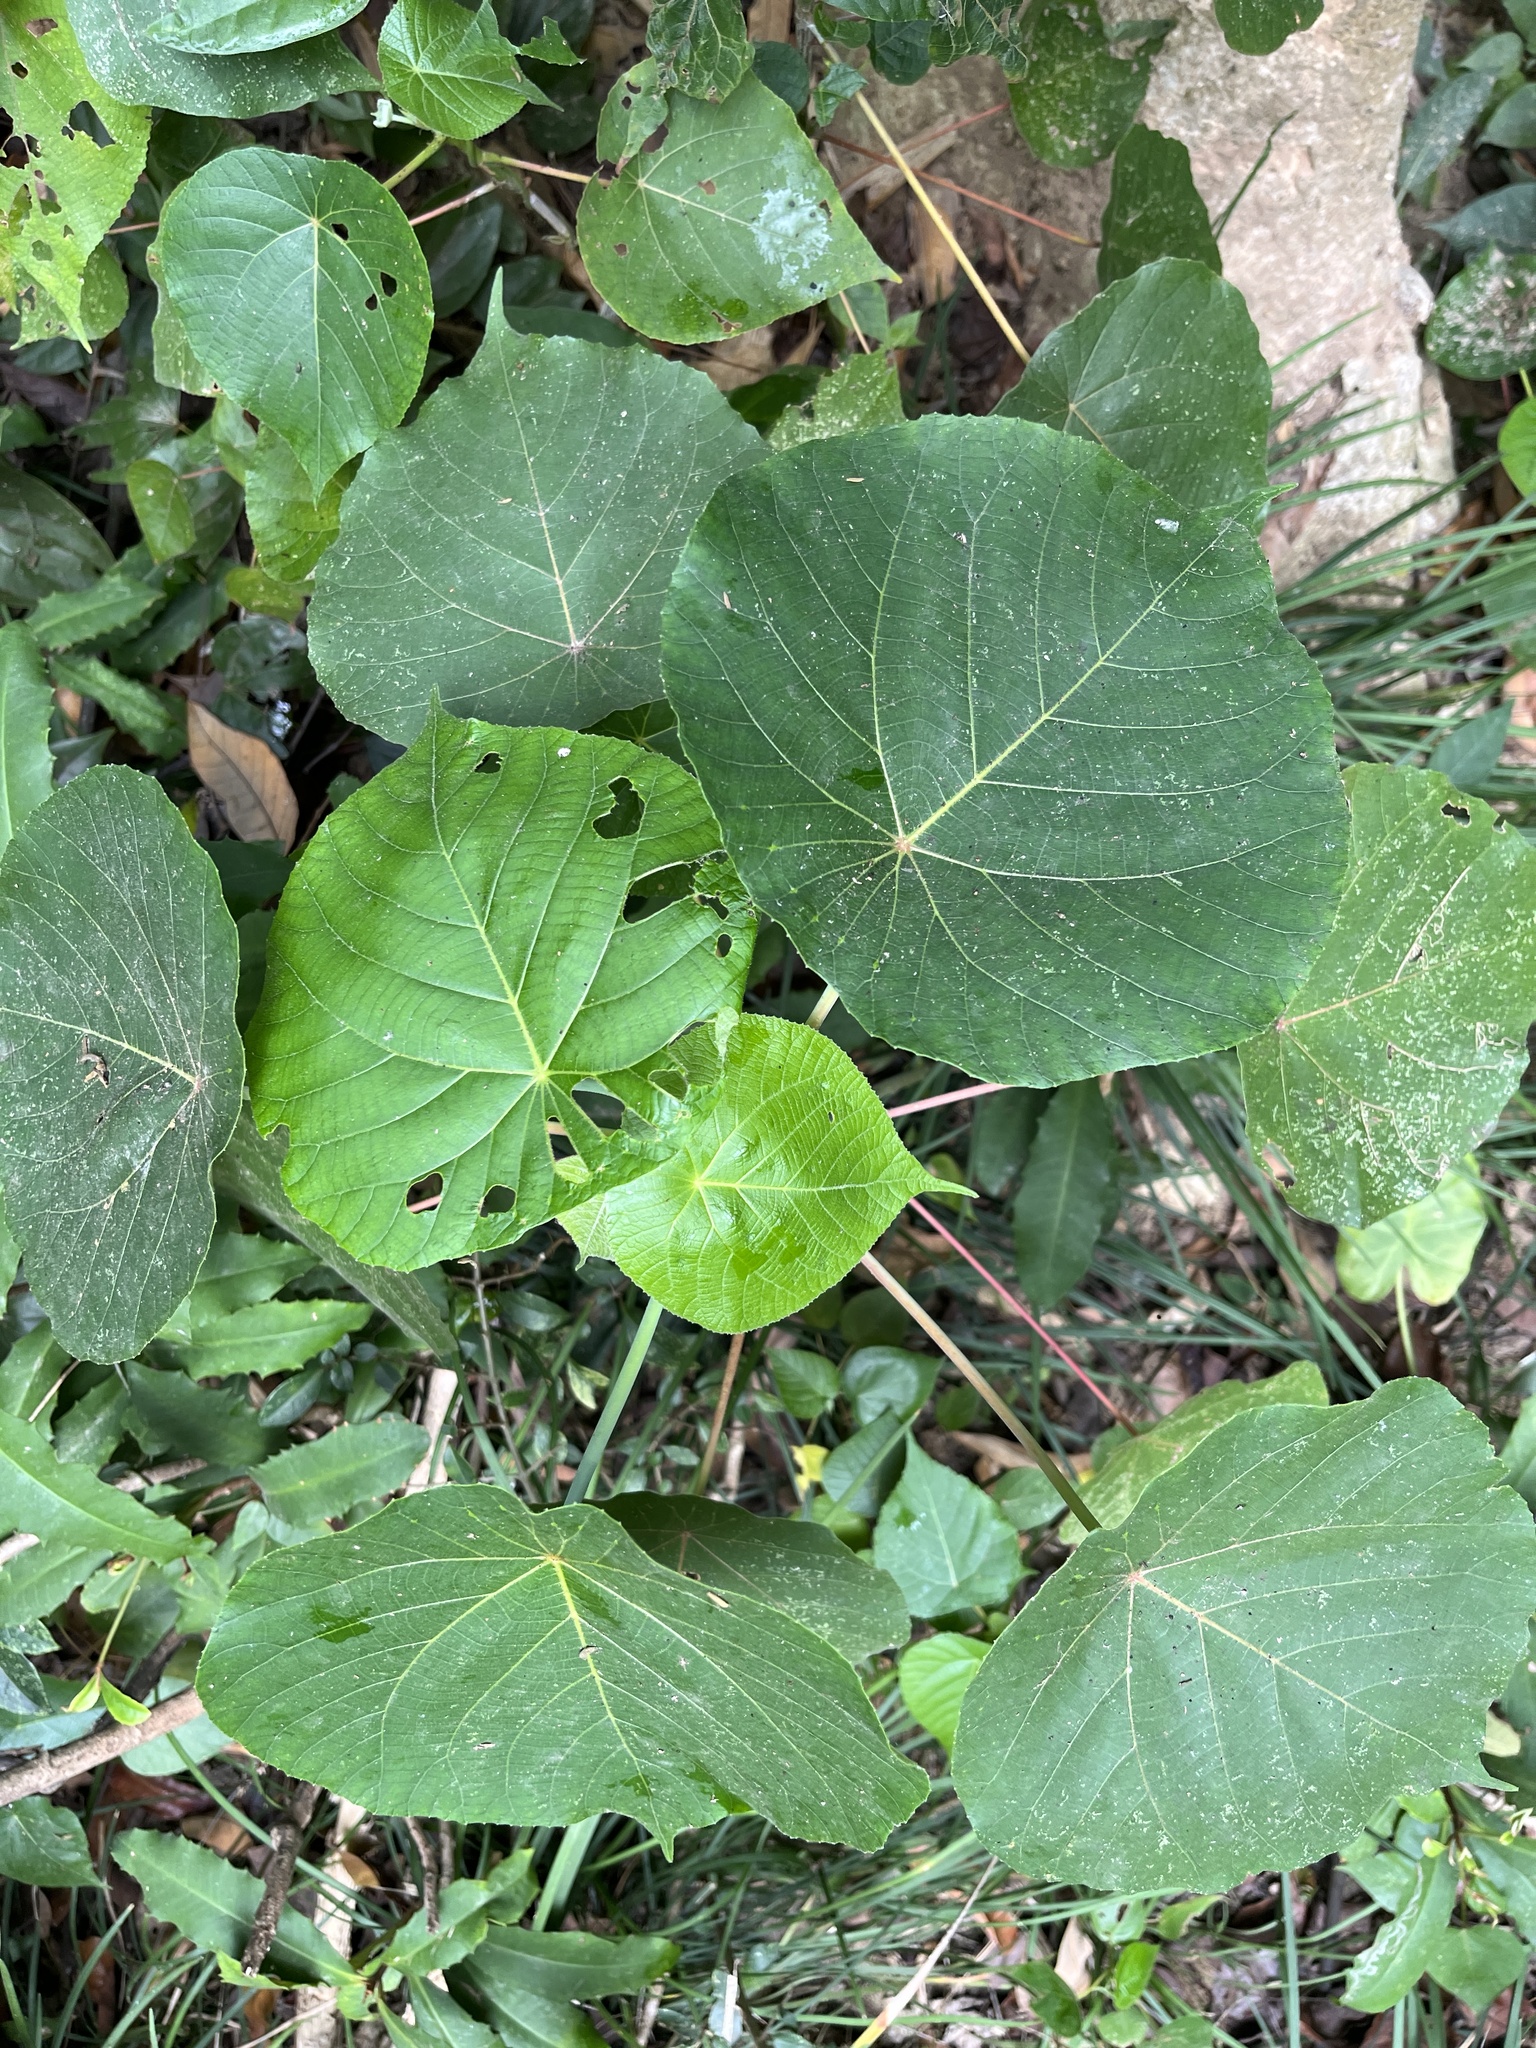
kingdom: Plantae
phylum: Tracheophyta
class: Magnoliopsida
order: Malpighiales
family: Euphorbiaceae
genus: Macaranga
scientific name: Macaranga tanarius
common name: Parasol leaf tree
